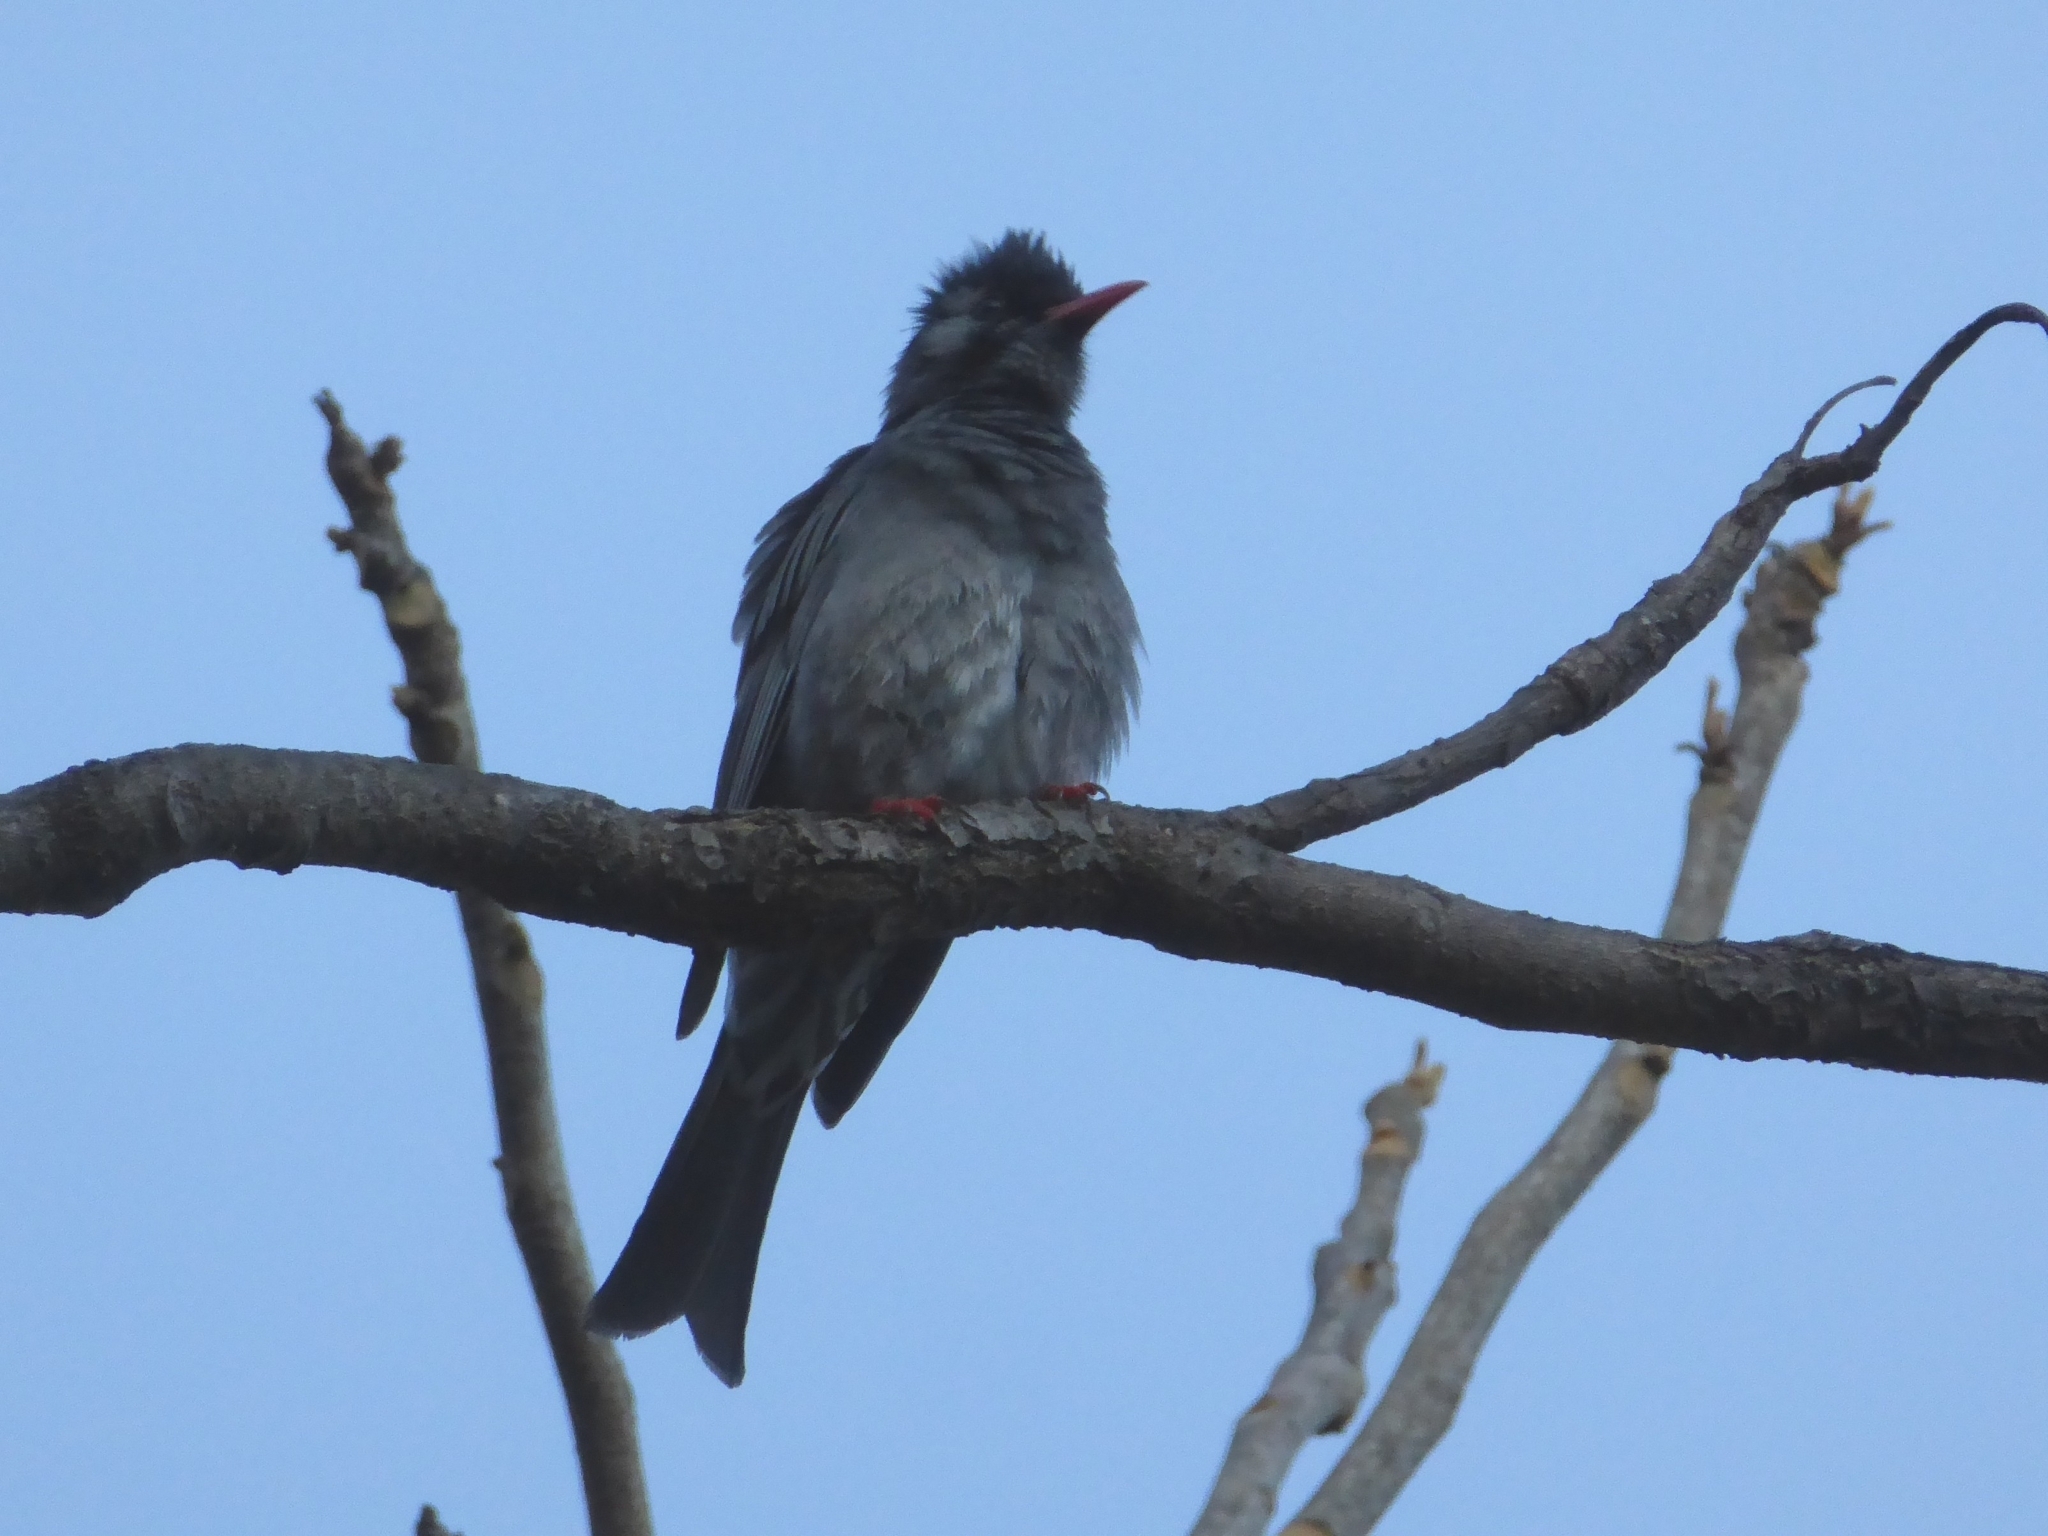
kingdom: Animalia
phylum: Chordata
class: Aves
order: Passeriformes
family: Pycnonotidae
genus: Hypsipetes
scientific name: Hypsipetes leucocephalus
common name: Black bulbul
